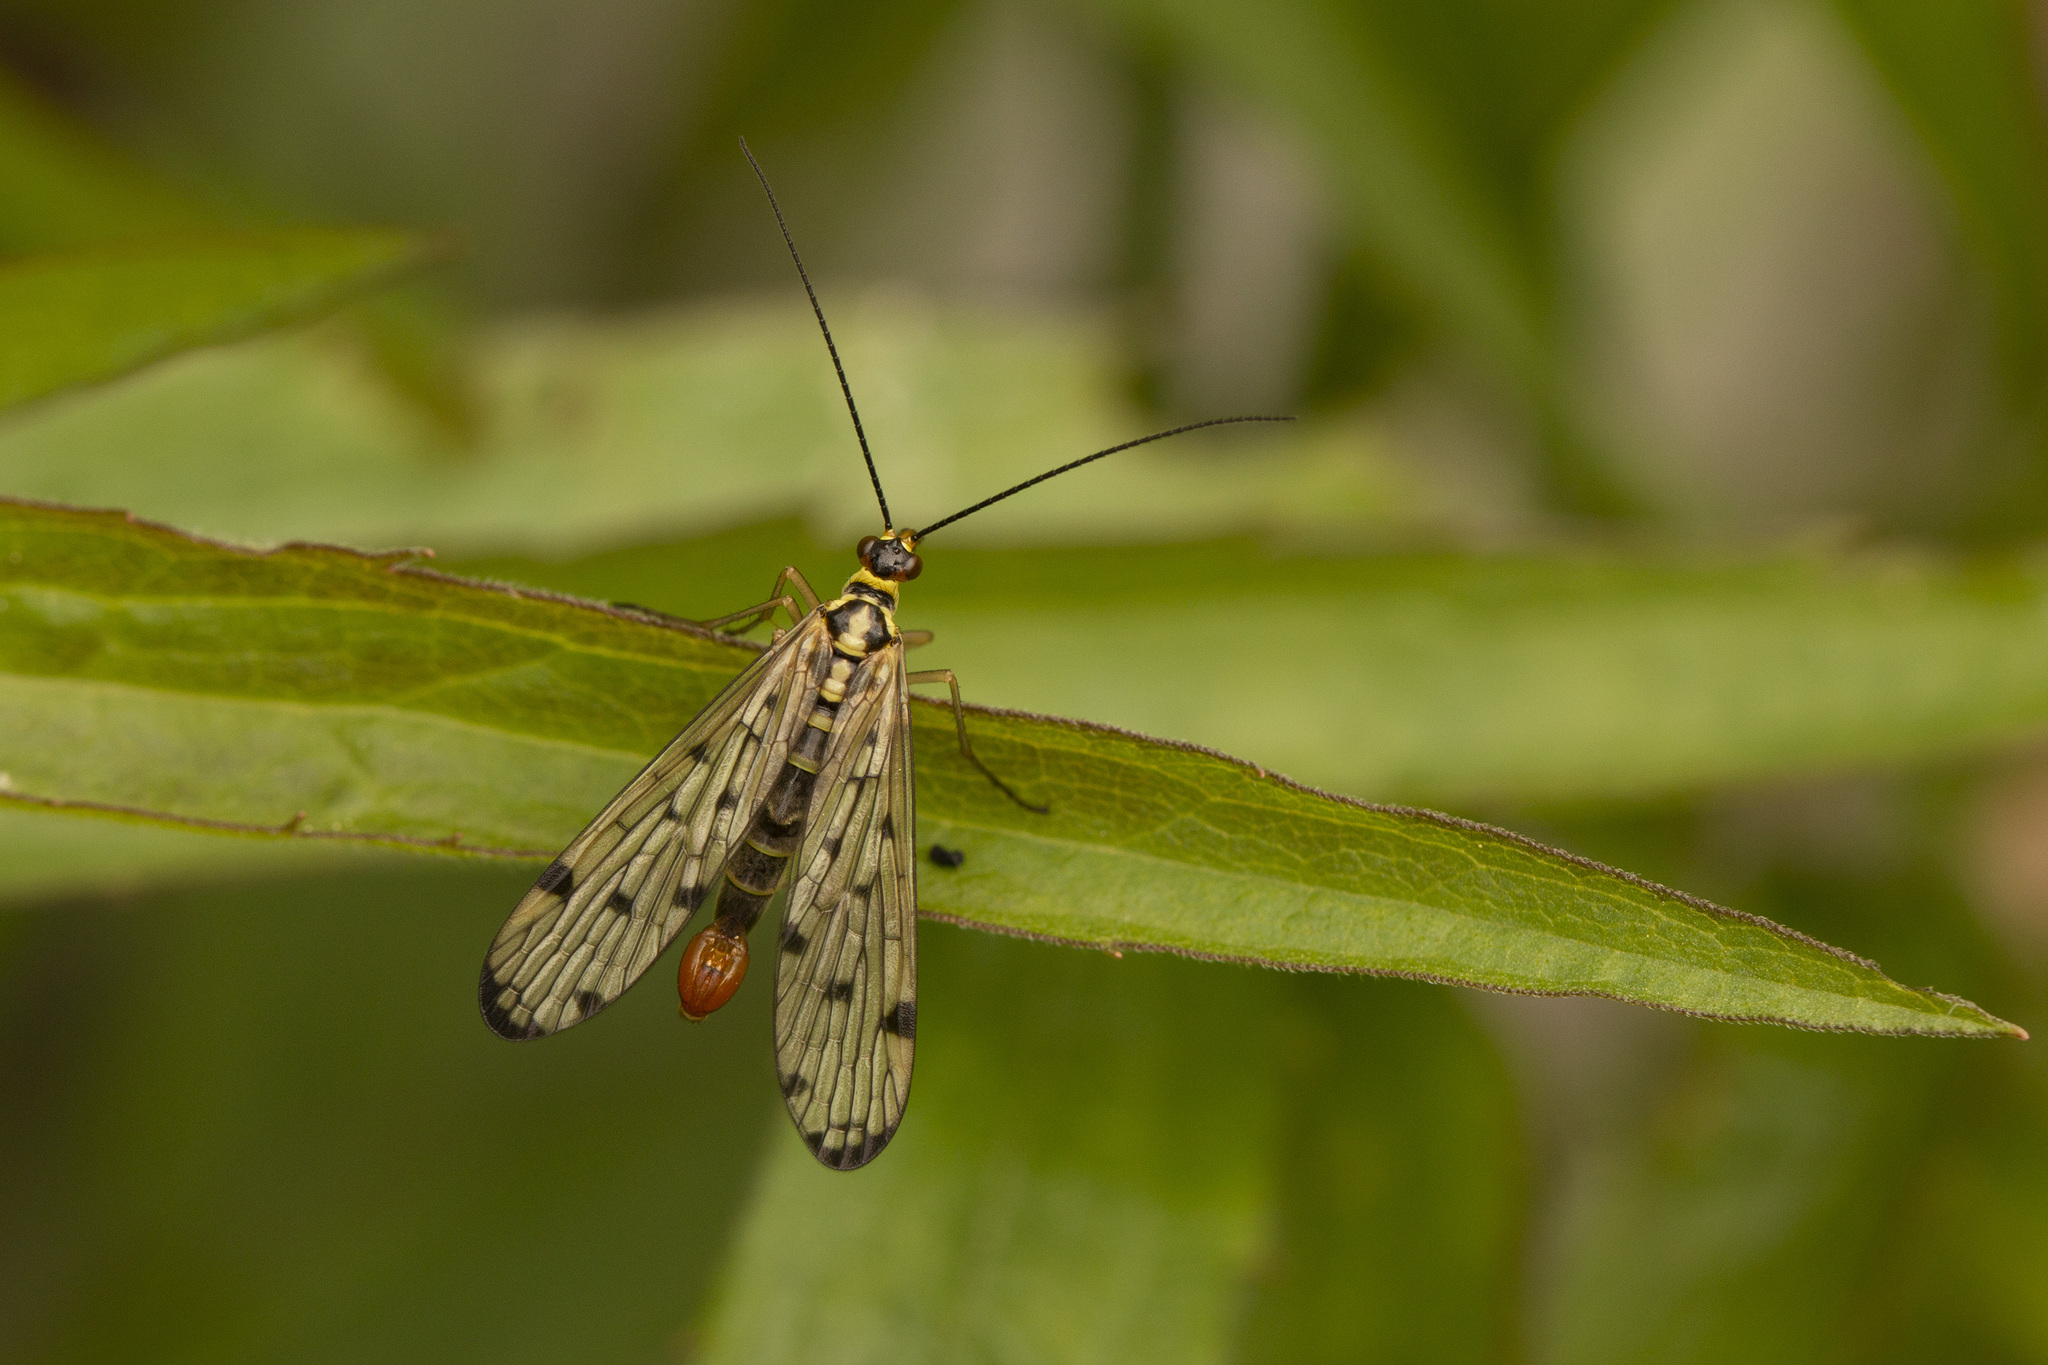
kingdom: Animalia
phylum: Arthropoda
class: Insecta
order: Mecoptera
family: Panorpidae
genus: Panorpa
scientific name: Panorpa communis
